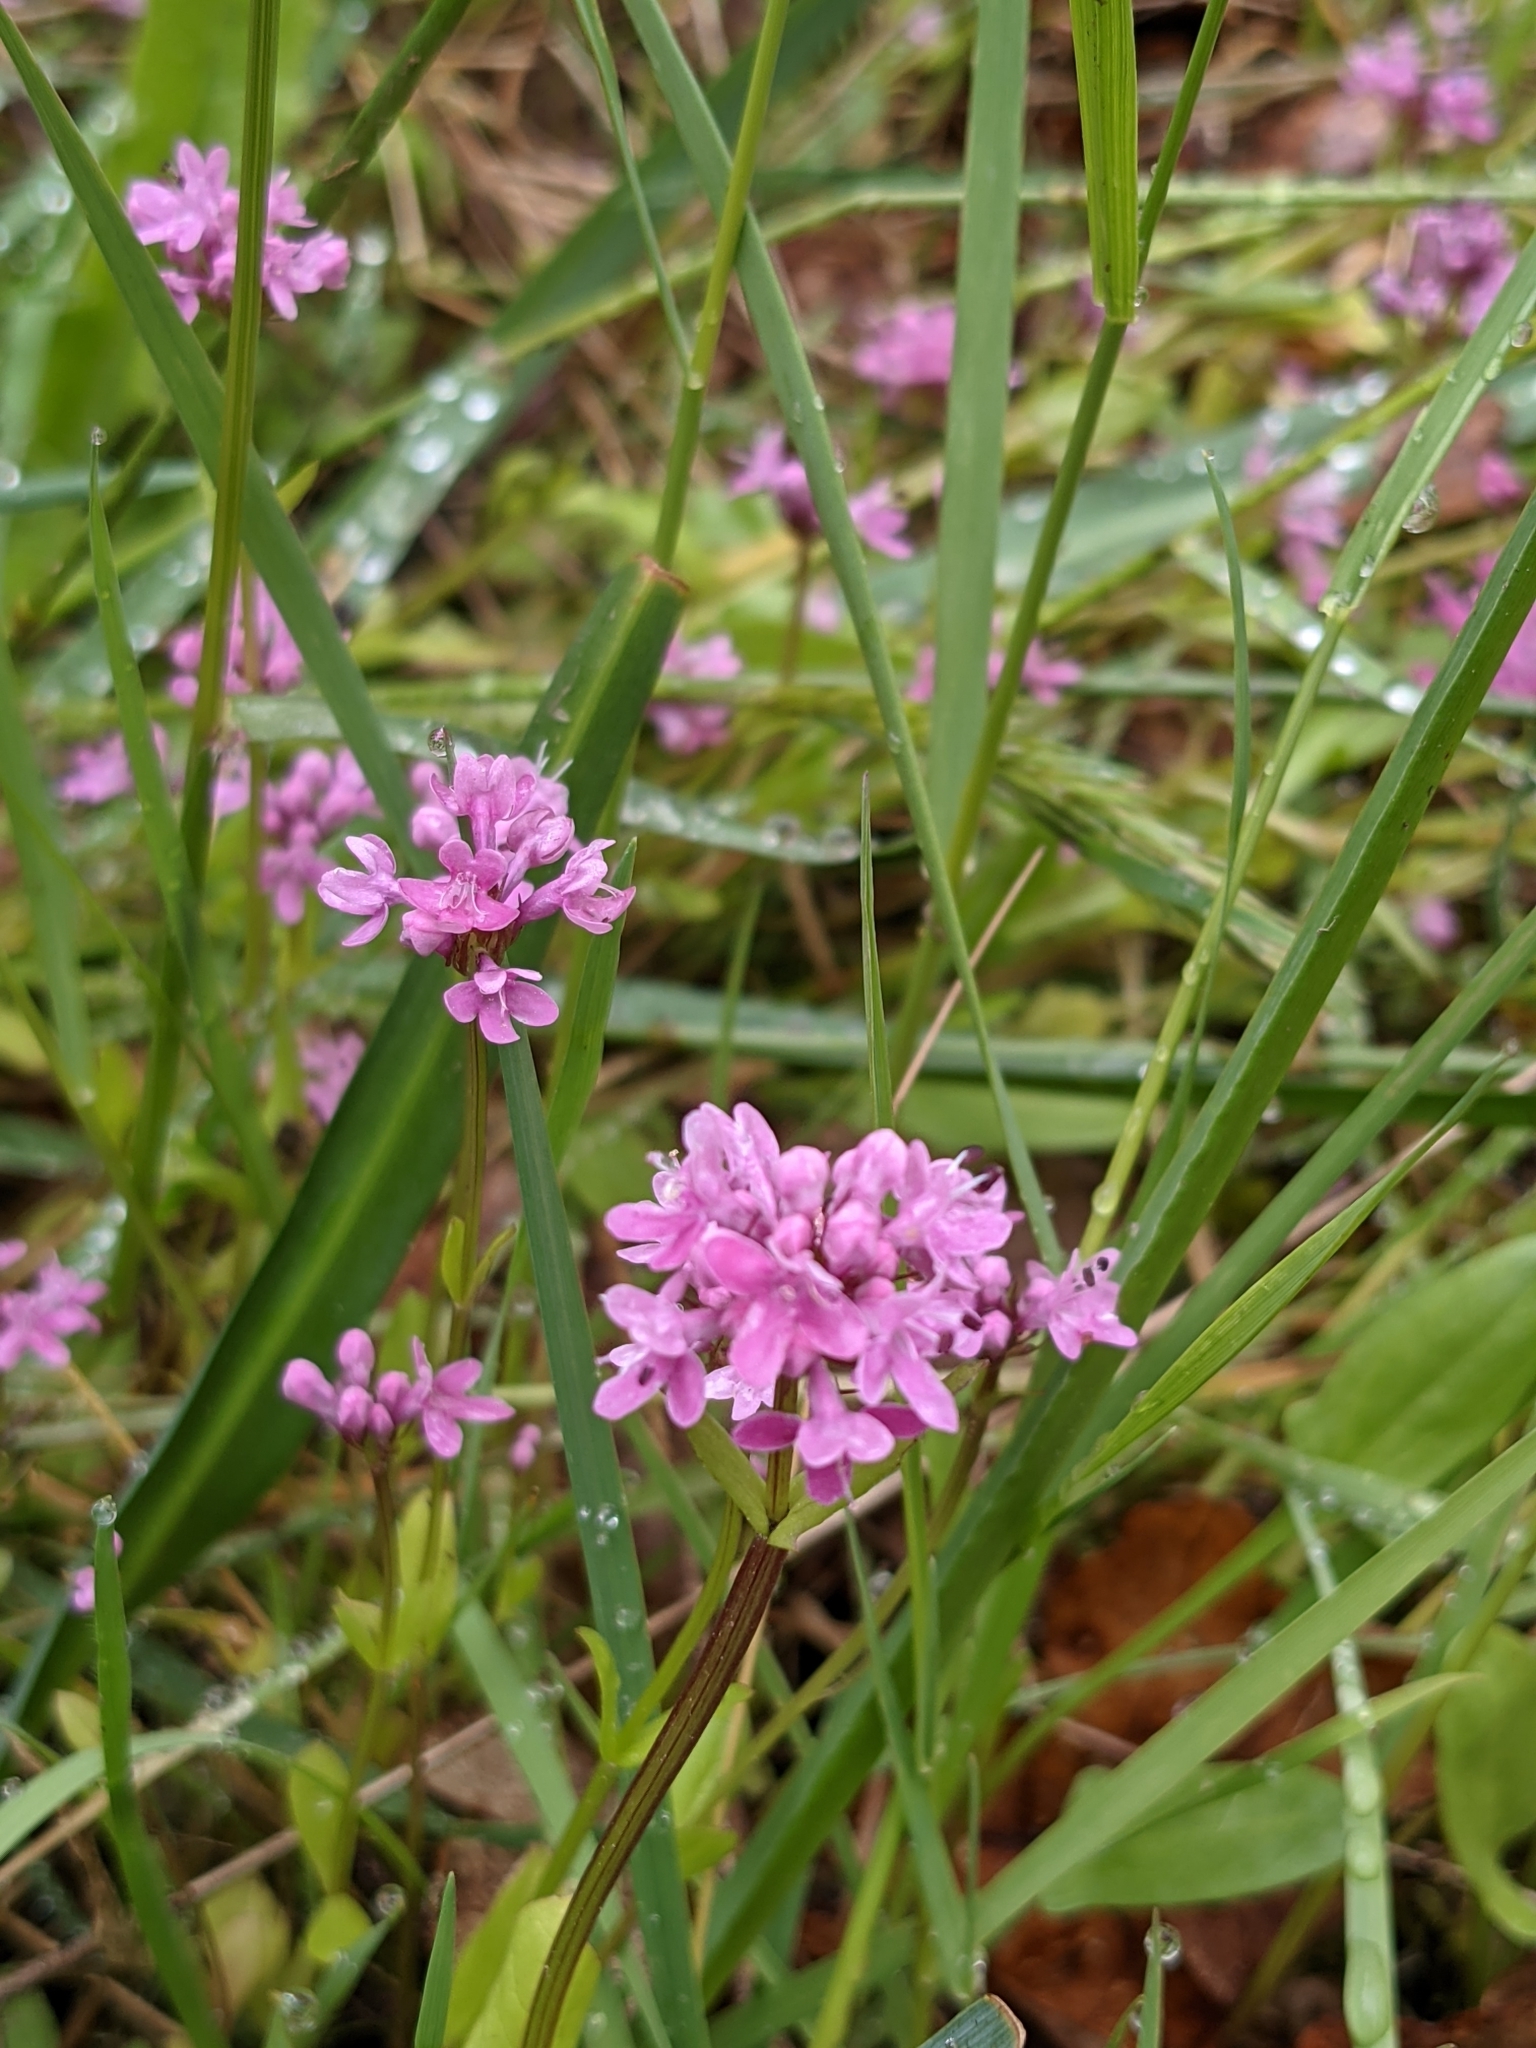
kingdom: Plantae
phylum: Tracheophyta
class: Magnoliopsida
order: Dipsacales
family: Caprifoliaceae
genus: Plectritis
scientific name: Plectritis congesta
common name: Pink plectritis
